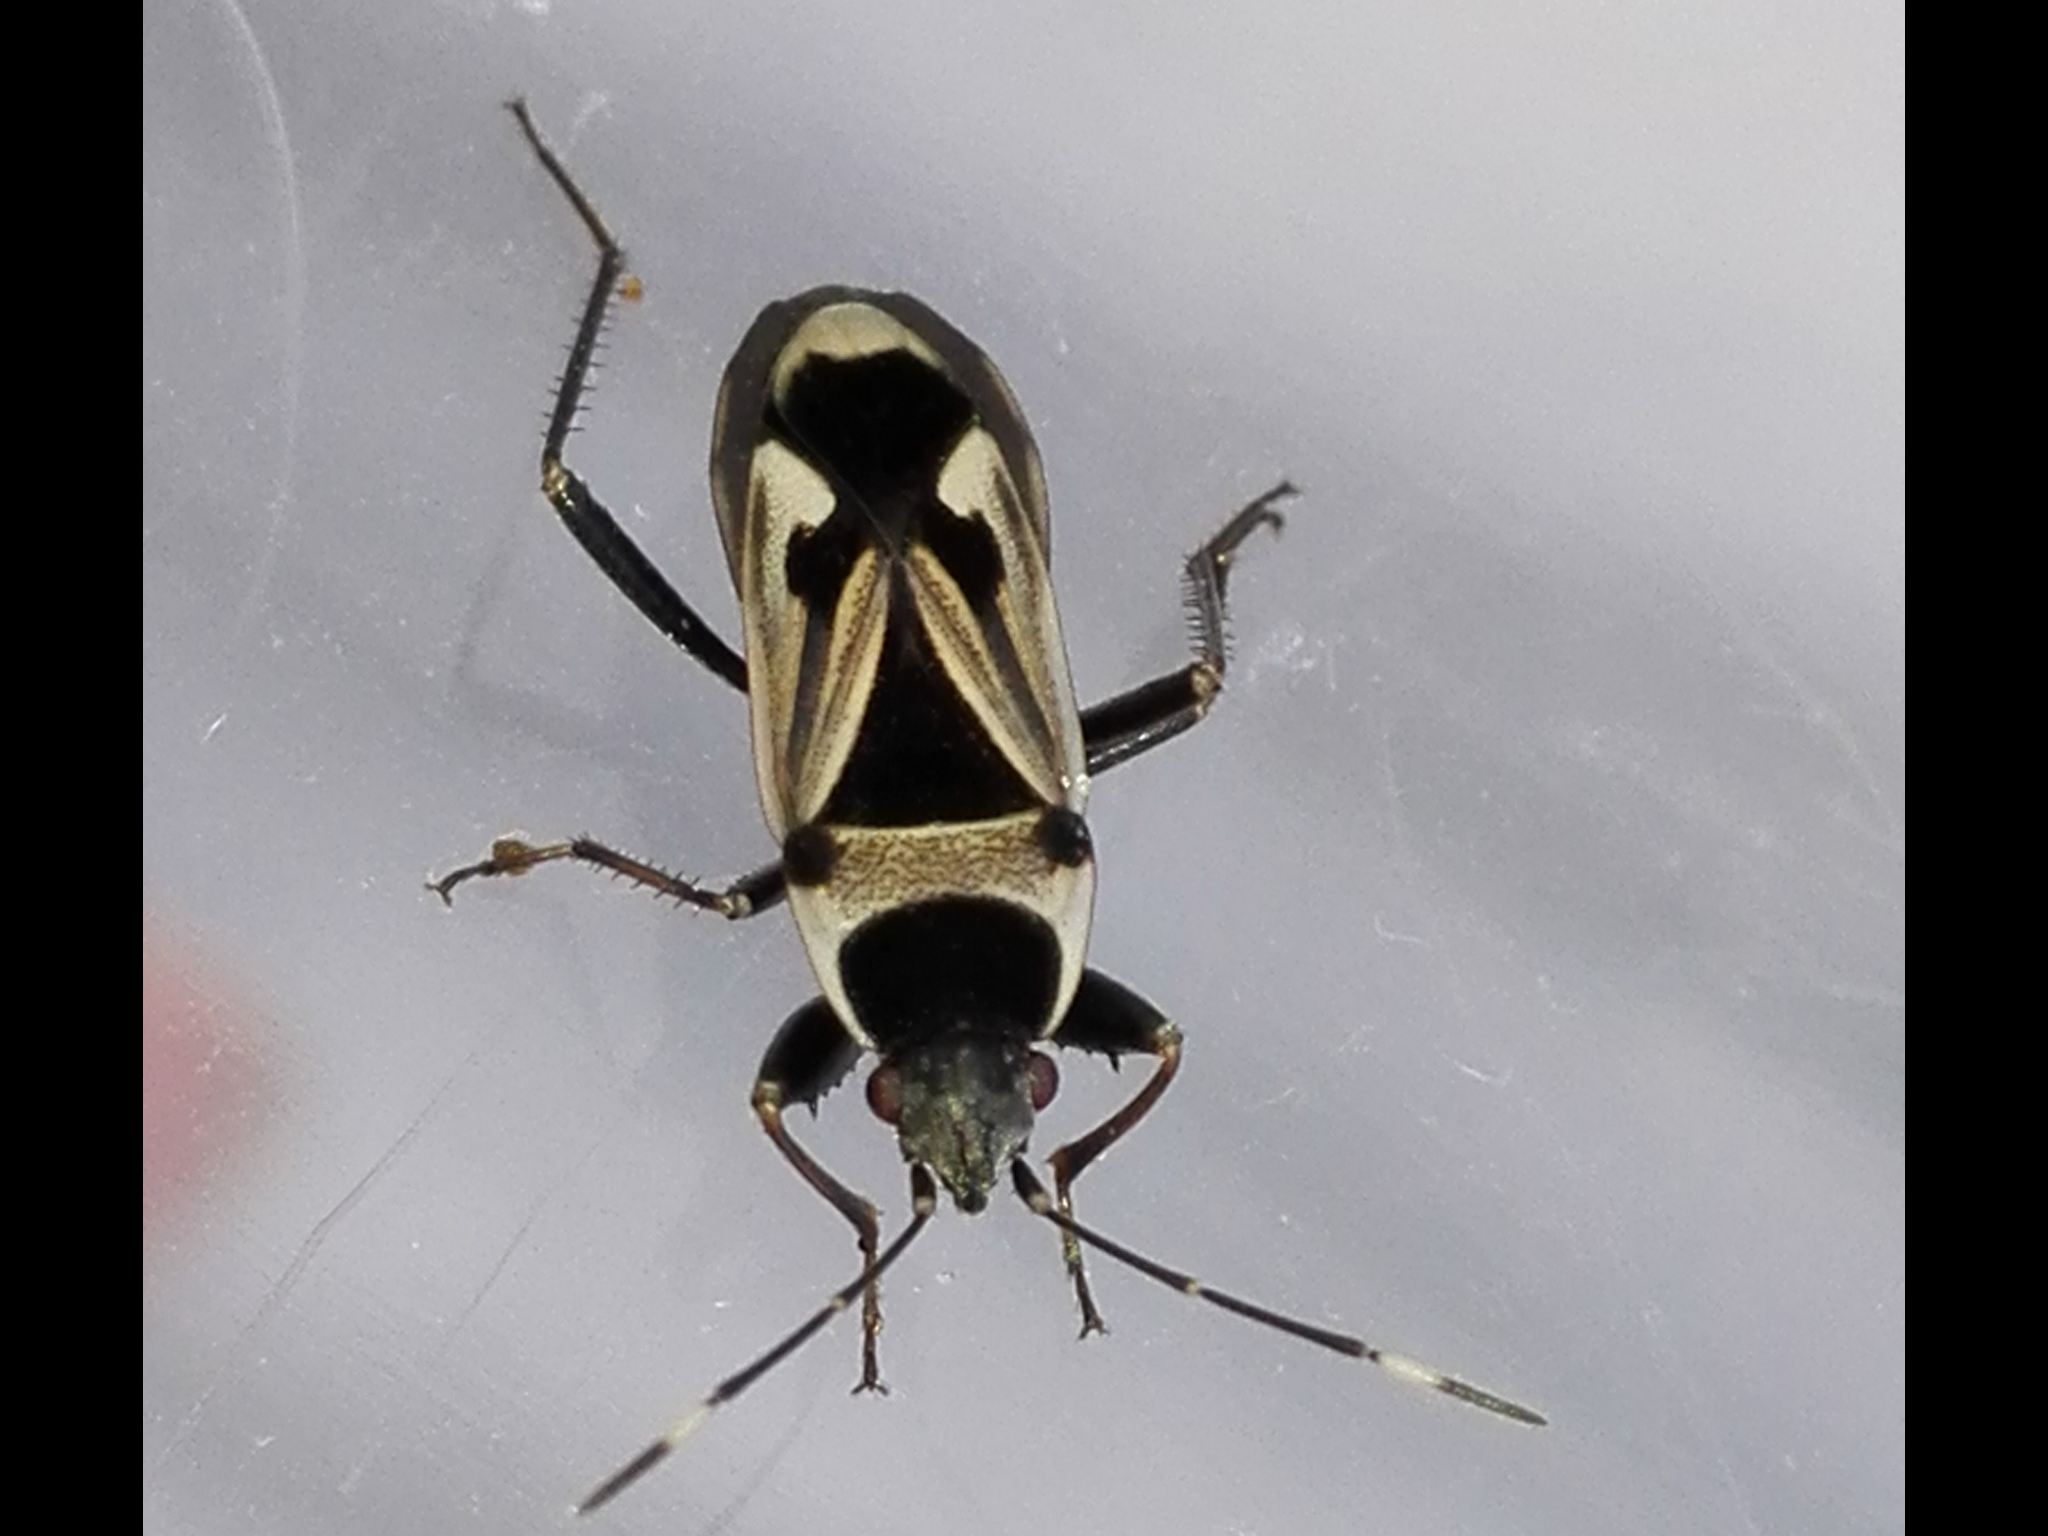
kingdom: Animalia
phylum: Arthropoda
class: Insecta
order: Hemiptera
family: Rhyparochromidae
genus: Raglius
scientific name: Raglius pineti
